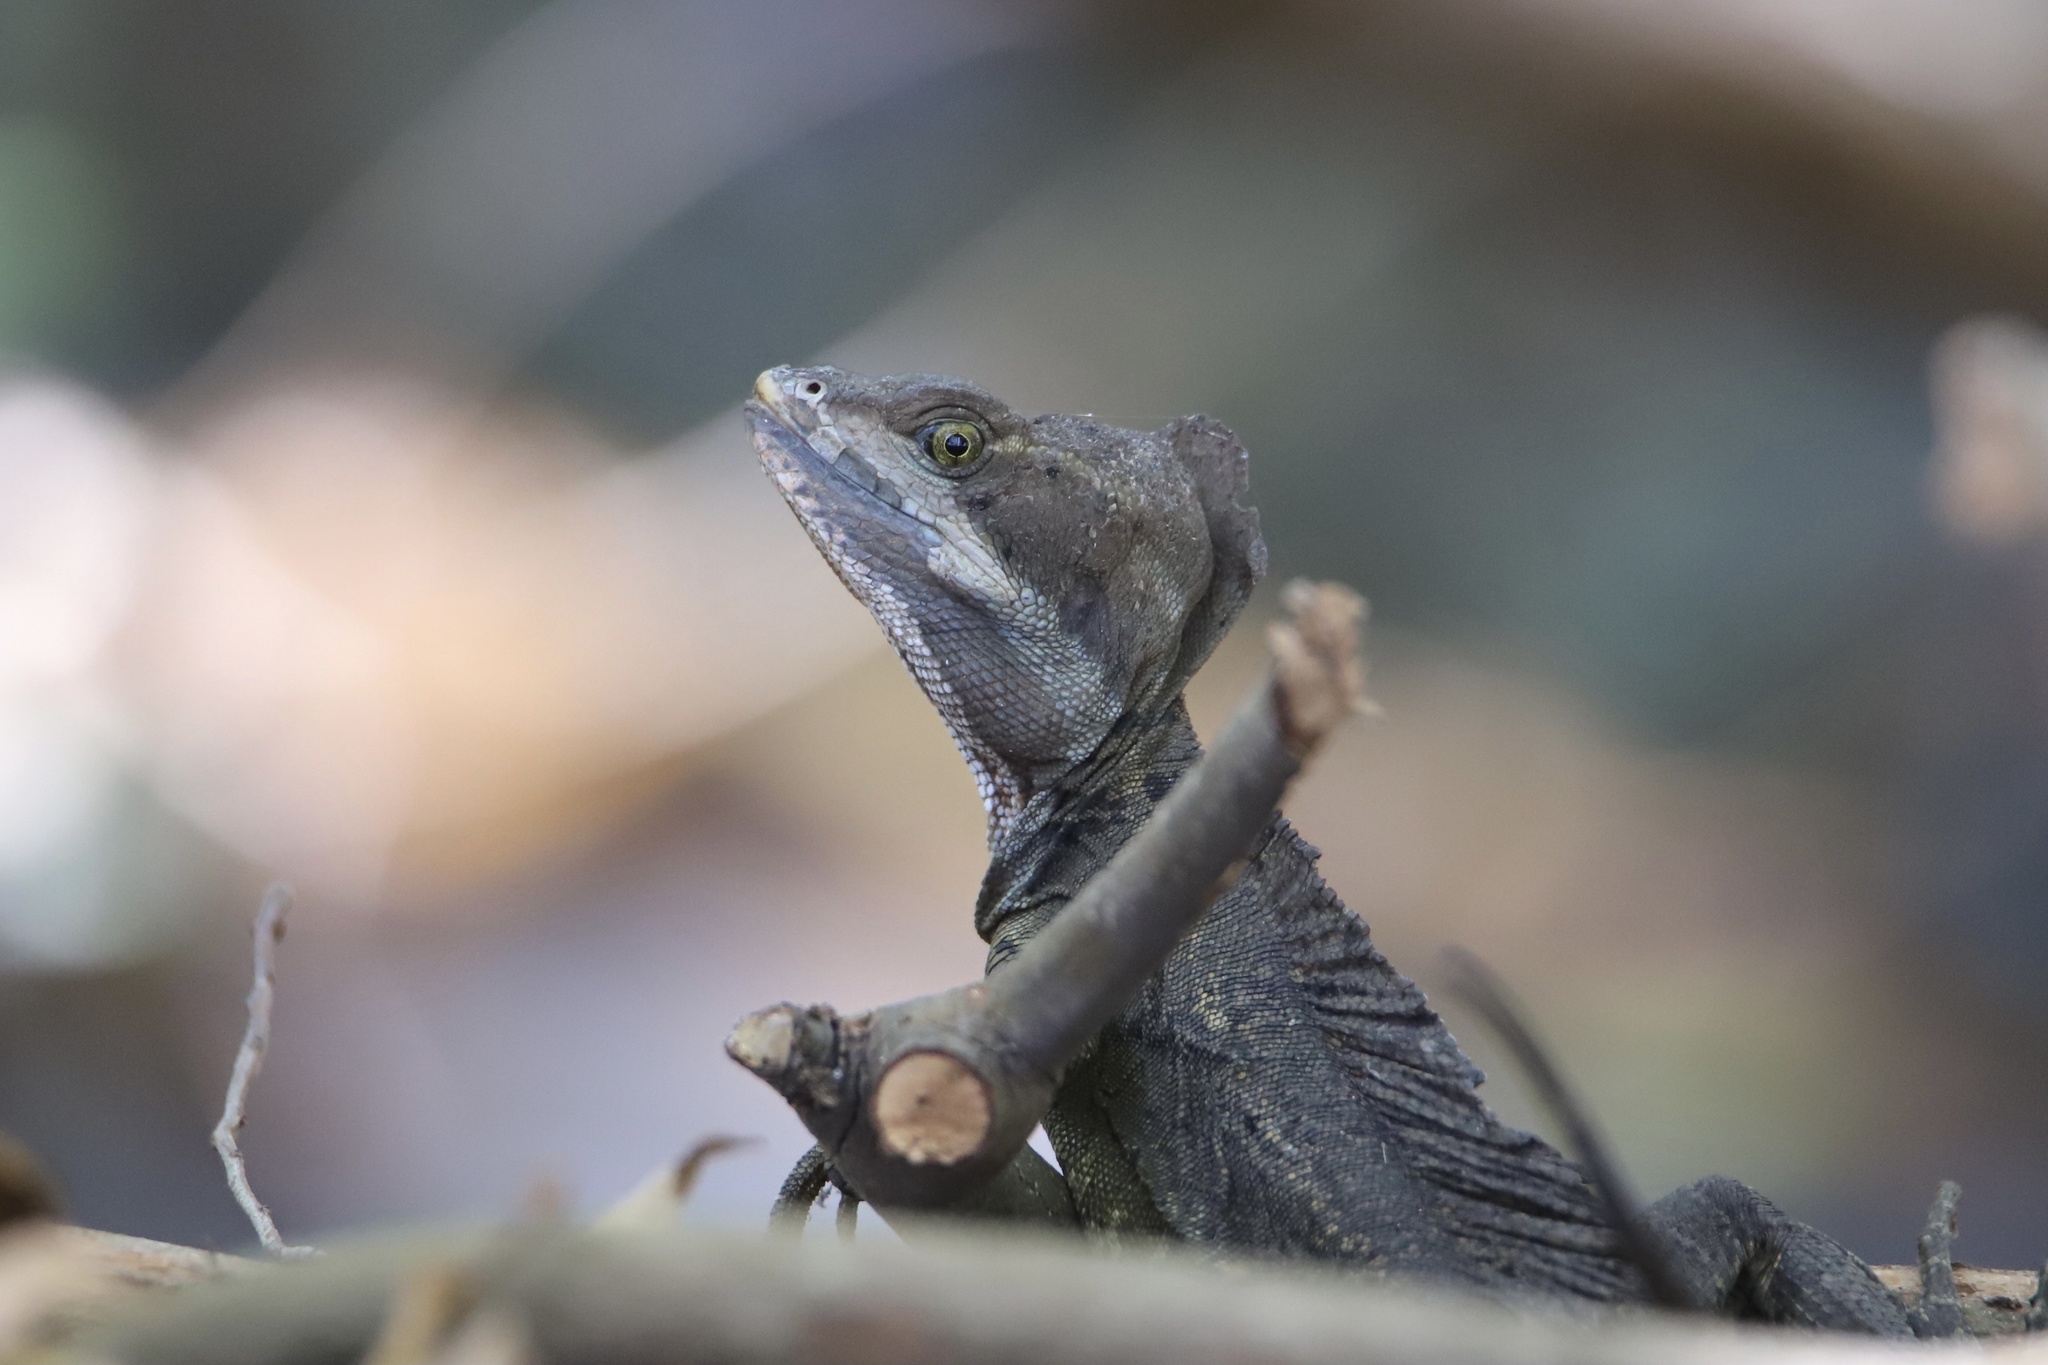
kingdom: Animalia
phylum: Chordata
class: Squamata
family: Corytophanidae
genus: Basiliscus
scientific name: Basiliscus basiliscus
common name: Common basilisk
